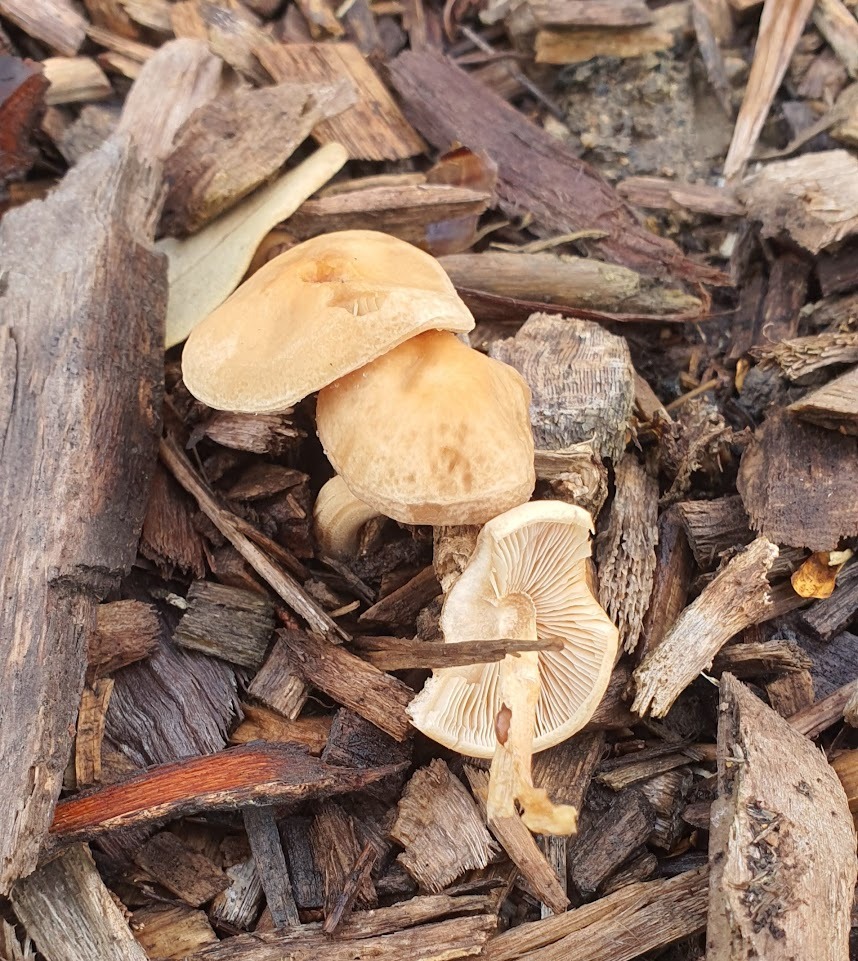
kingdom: Fungi
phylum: Basidiomycota
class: Agaricomycetes
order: Agaricales
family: Strophariaceae
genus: Agrocybe
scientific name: Agrocybe putaminum
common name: Mulch fieldcap
